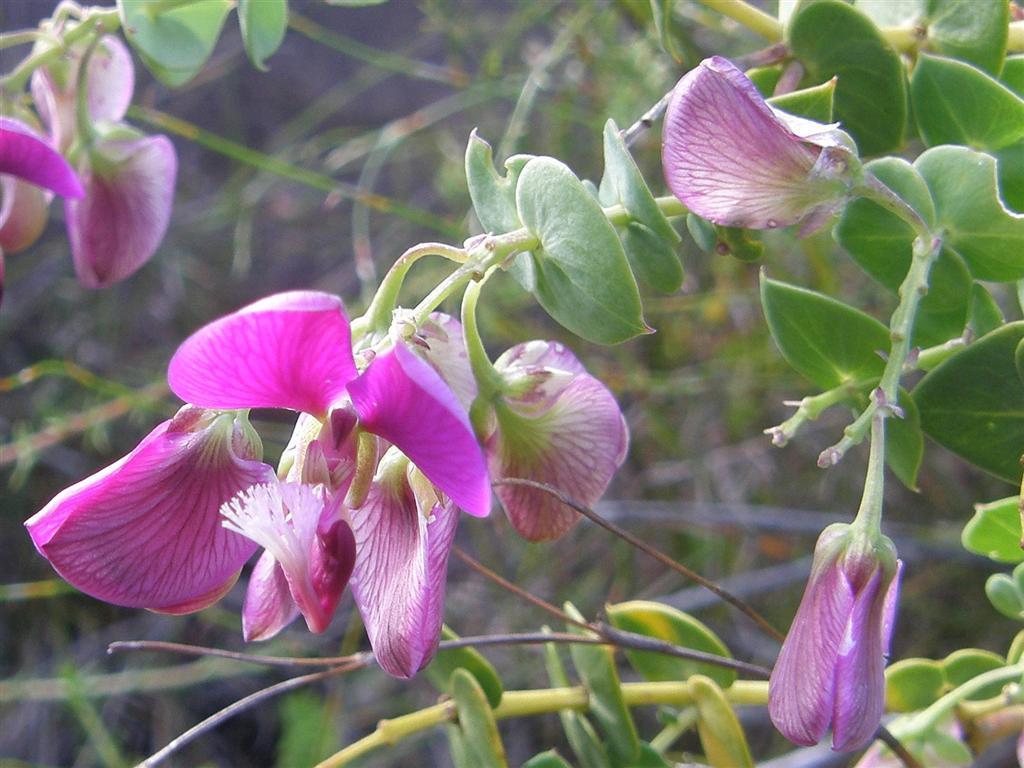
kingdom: Plantae
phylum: Tracheophyta
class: Magnoliopsida
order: Fabales
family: Polygalaceae
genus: Polygala
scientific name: Polygala fruticosa
